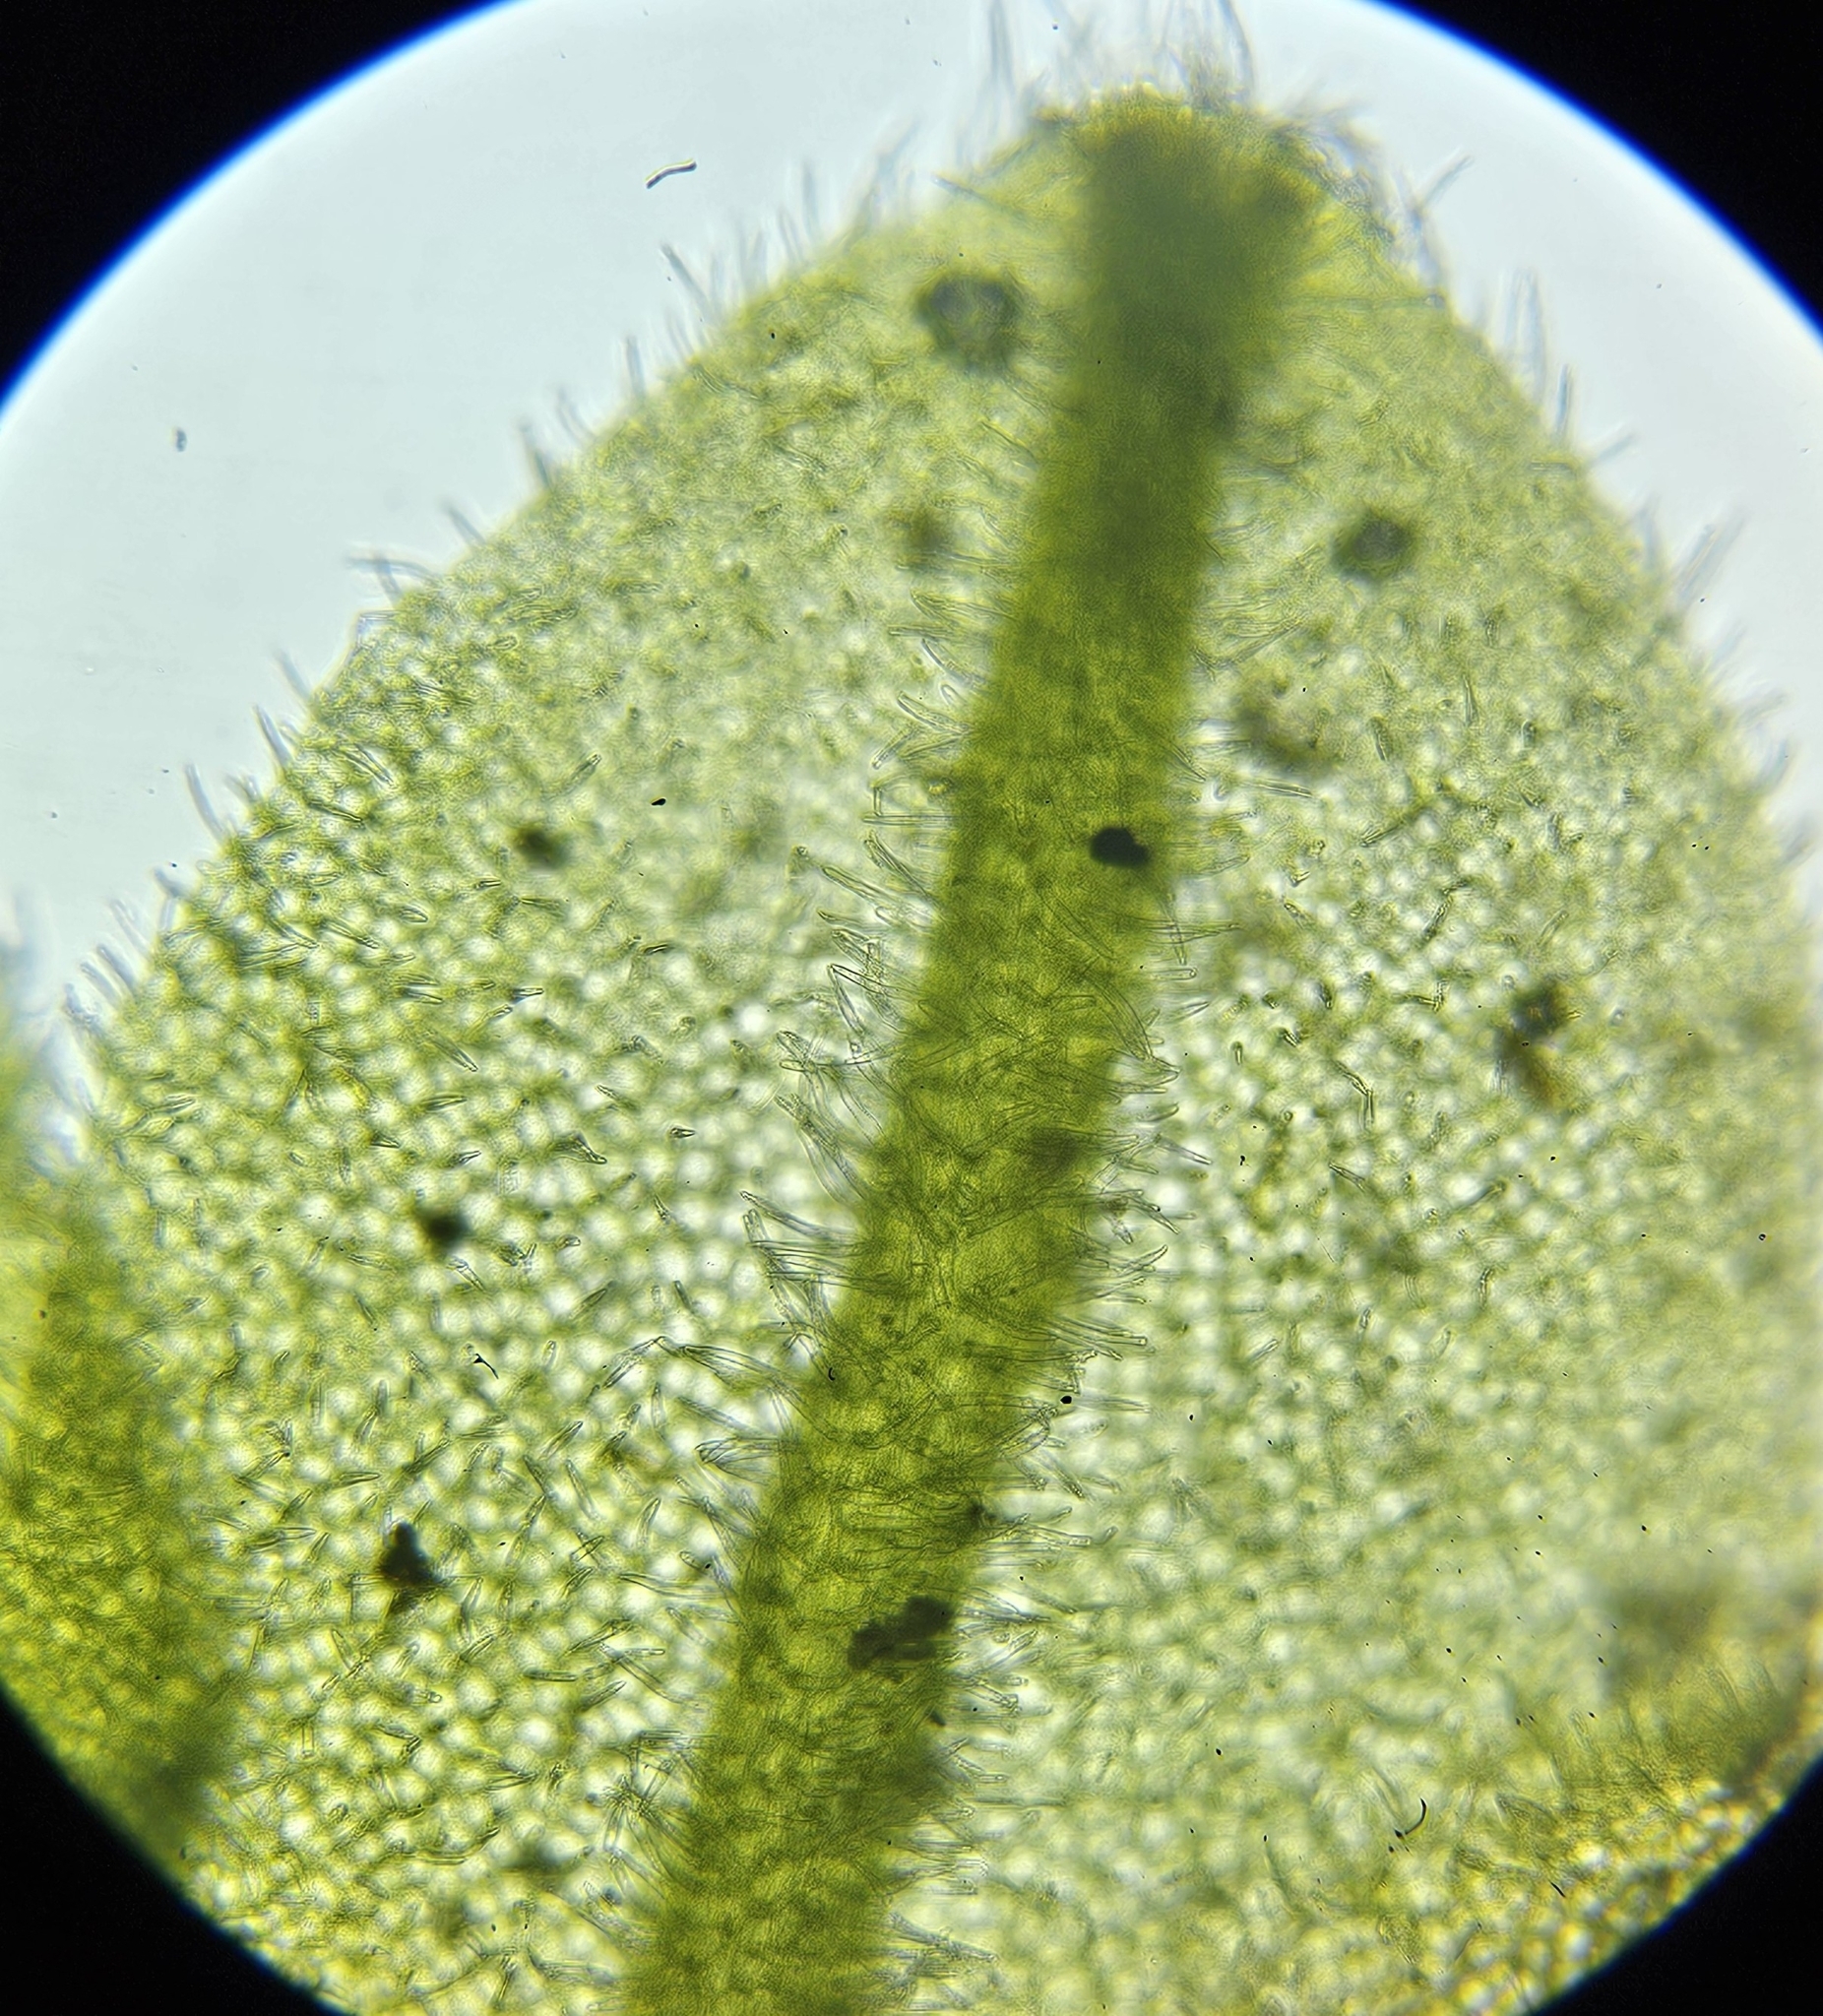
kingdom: Plantae
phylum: Marchantiophyta
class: Jungermanniopsida
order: Metzgeriales
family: Metzgeriaceae
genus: Metzgeria
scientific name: Metzgeria pubescens
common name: Downy veilwort
